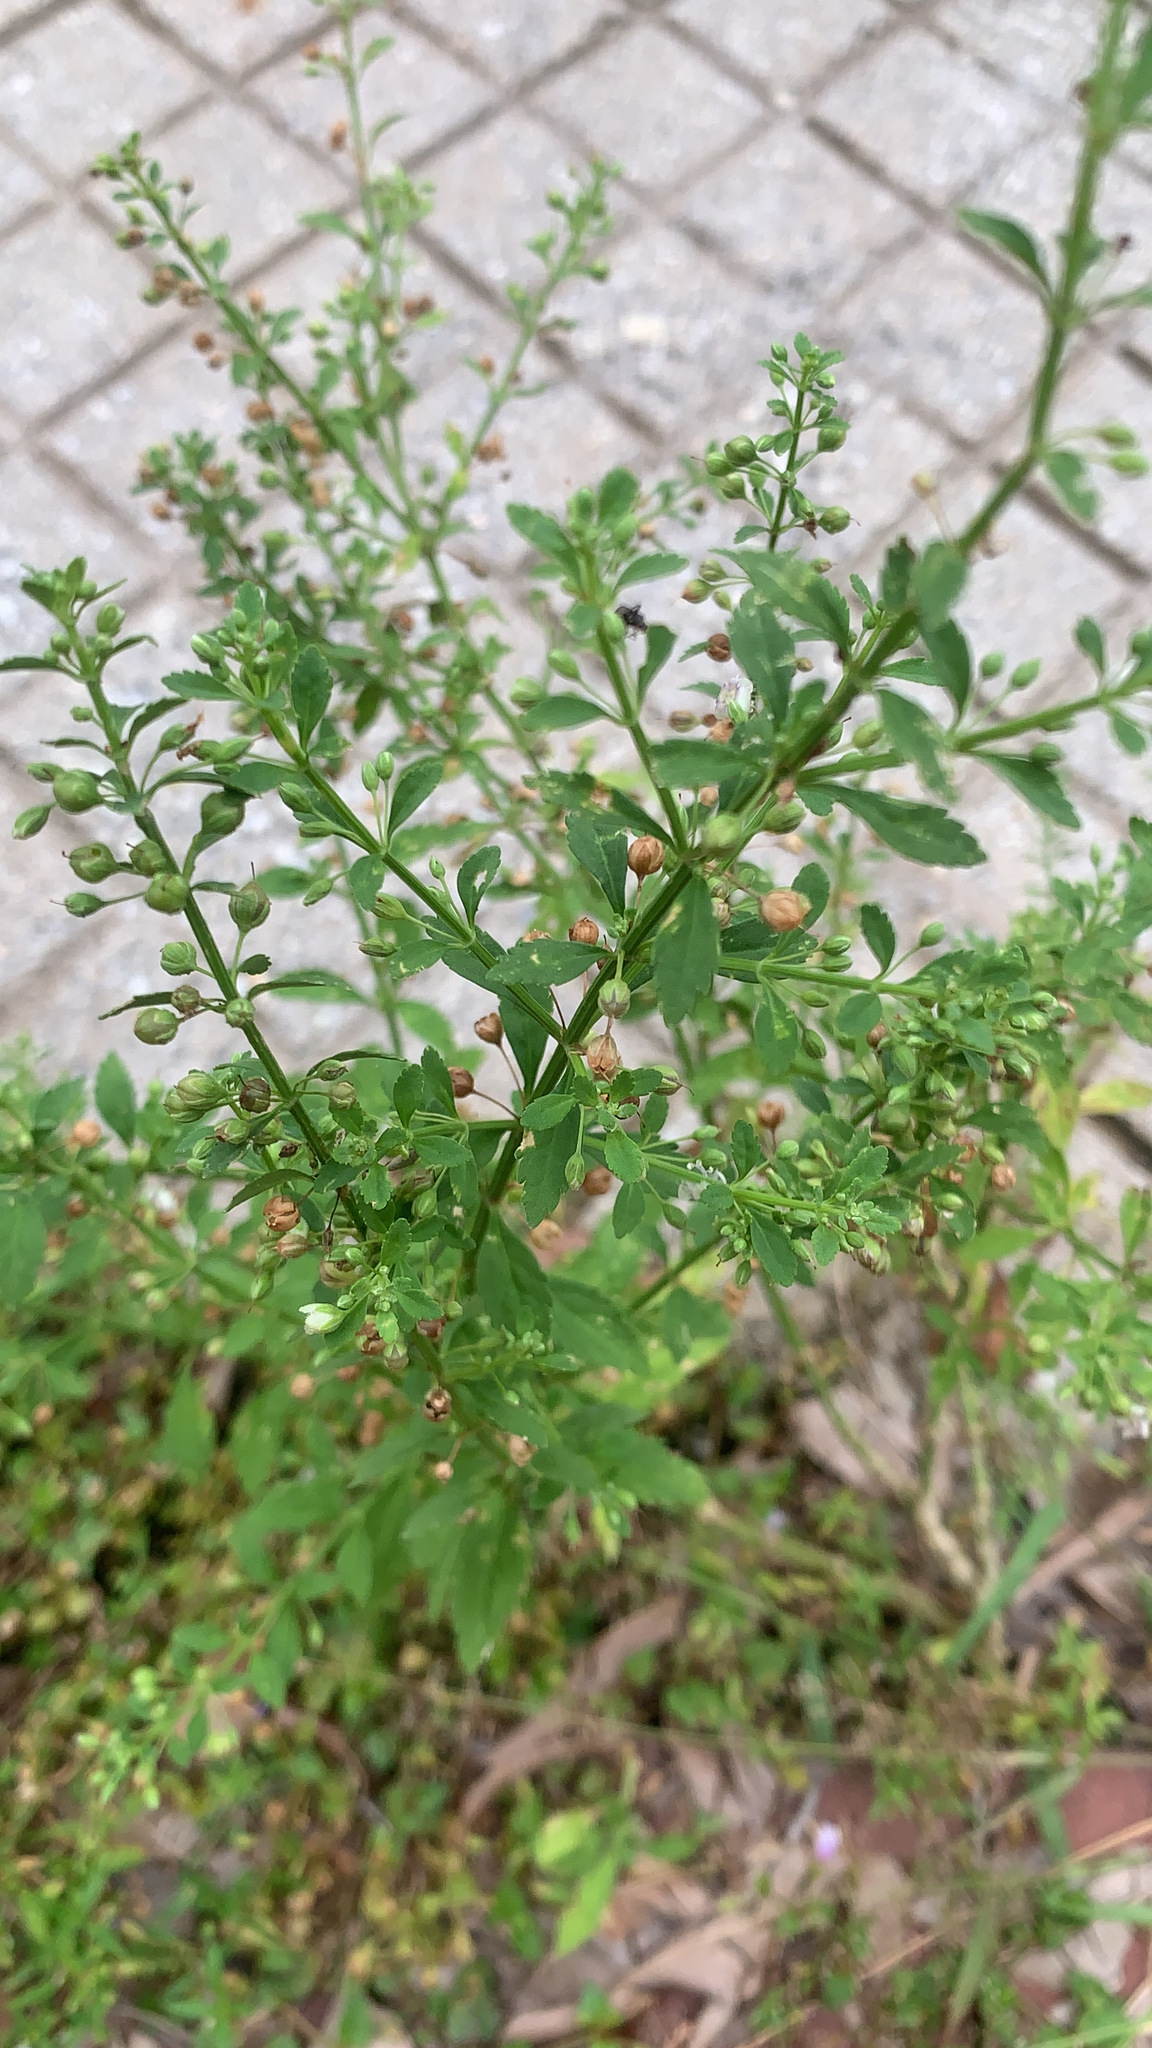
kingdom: Plantae
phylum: Tracheophyta
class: Magnoliopsida
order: Lamiales
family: Plantaginaceae
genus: Scoparia
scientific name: Scoparia dulcis
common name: Scoparia-weed
